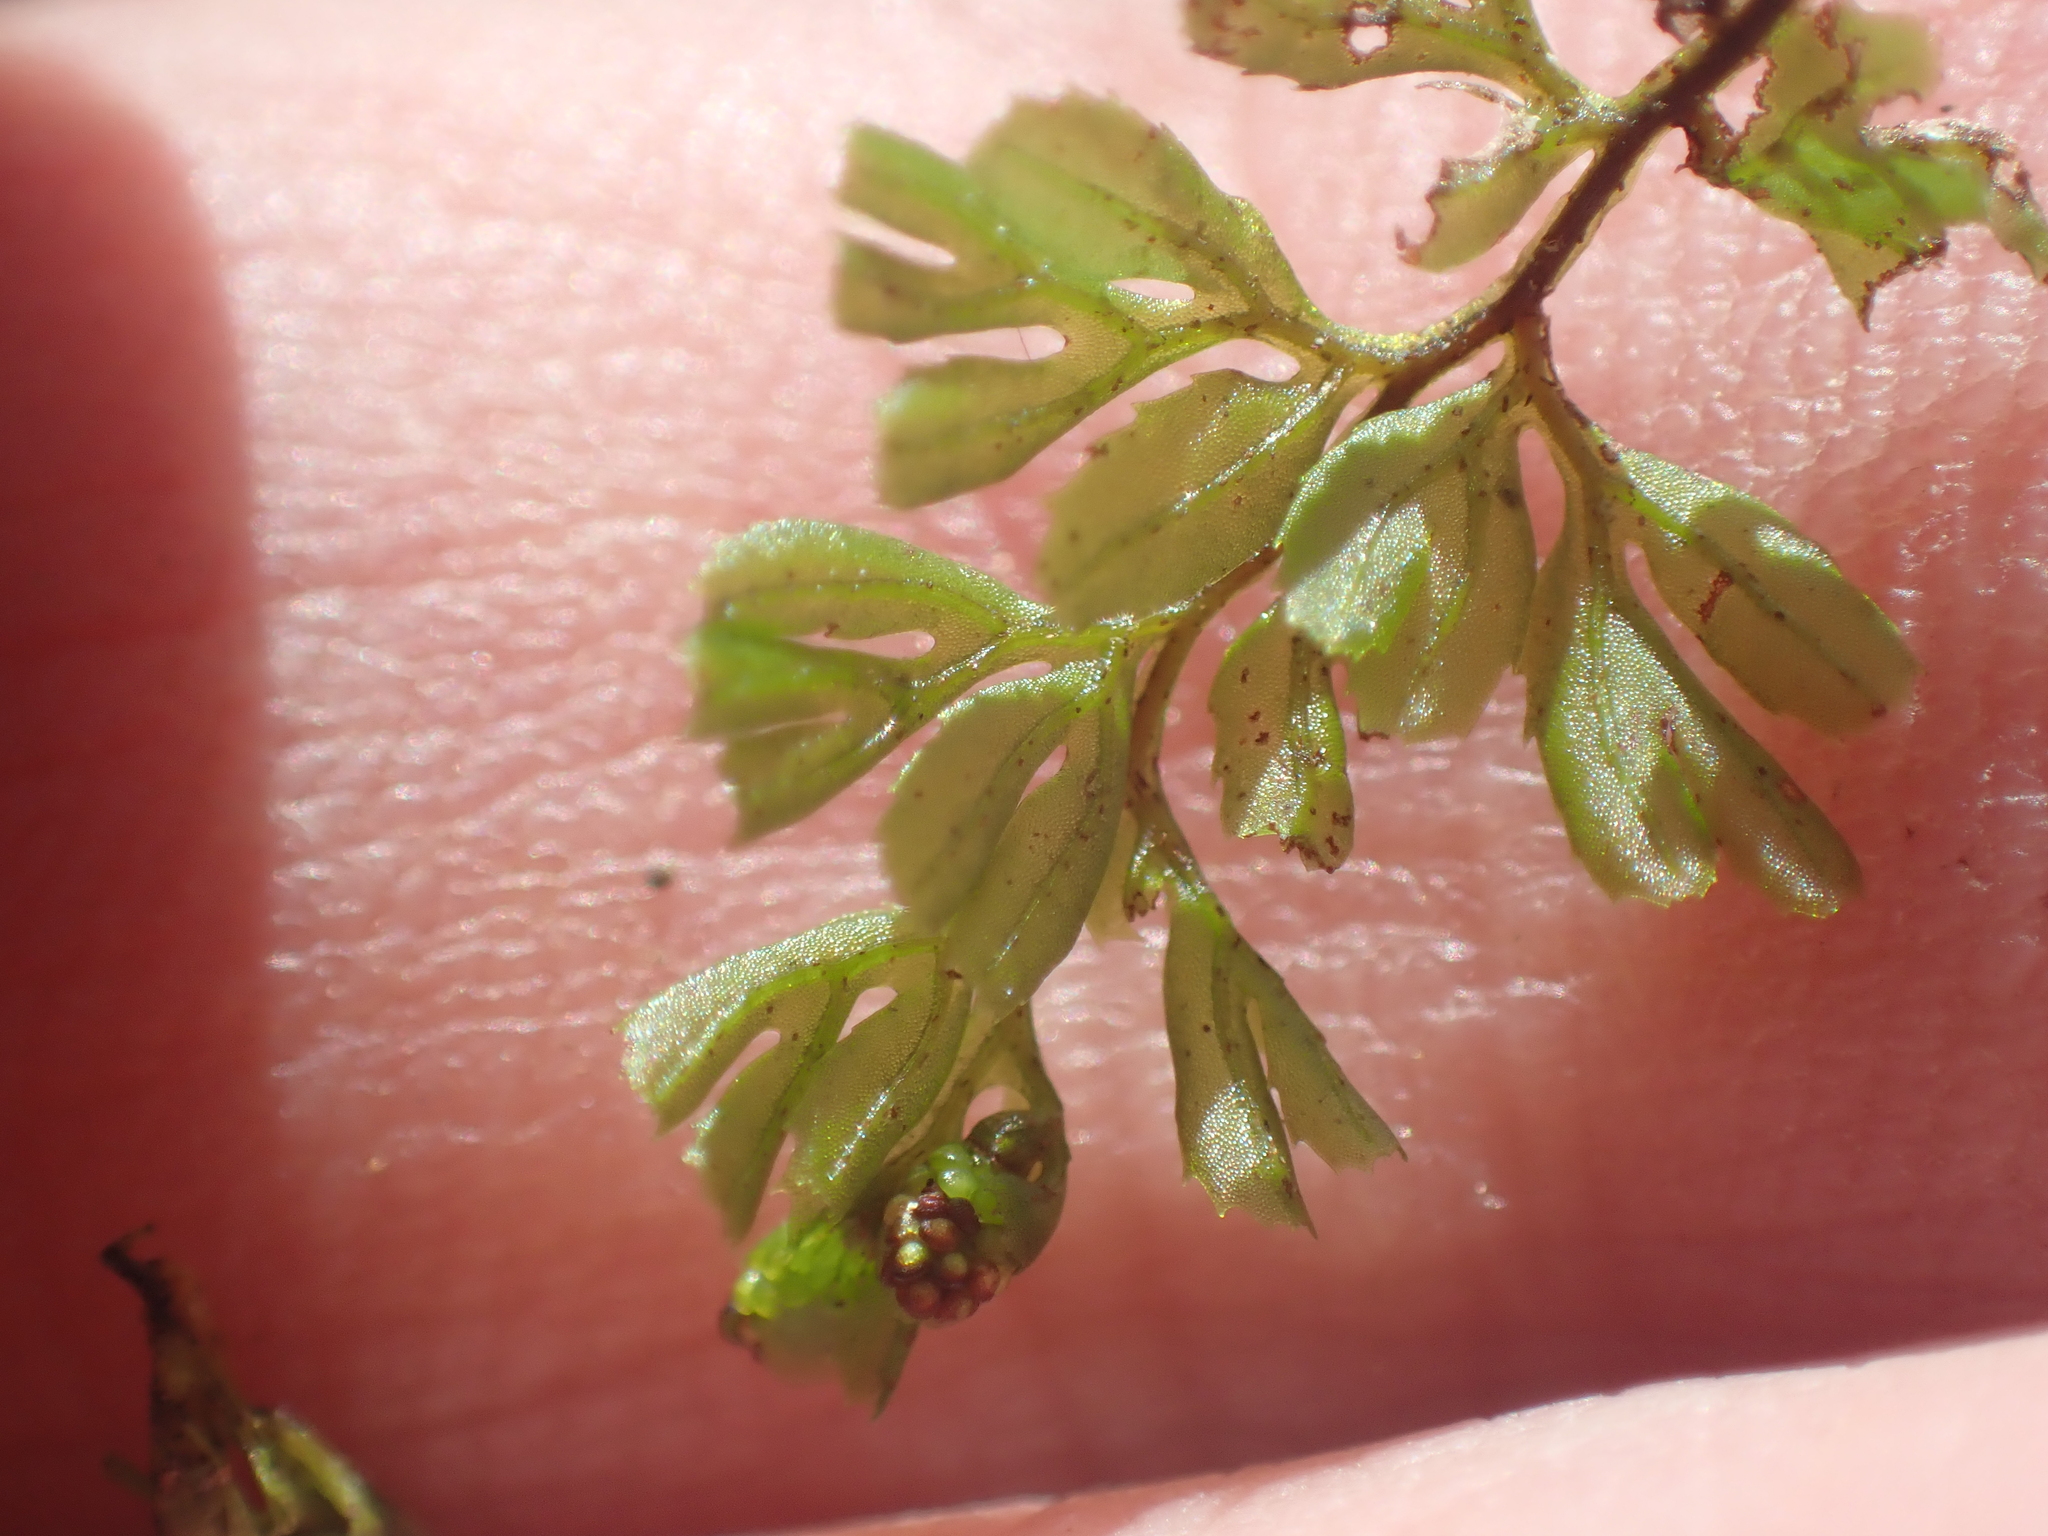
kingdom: Plantae
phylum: Tracheophyta
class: Polypodiopsida
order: Hymenophyllales
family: Hymenophyllaceae
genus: Hymenophyllum
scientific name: Hymenophyllum cupressiforme
